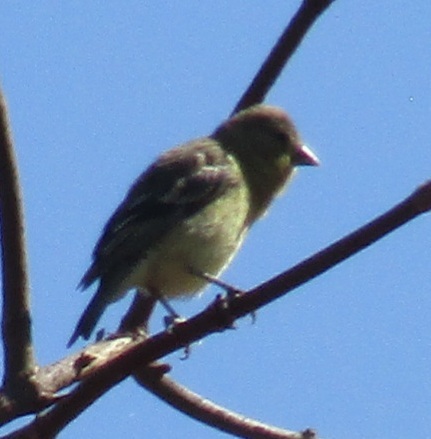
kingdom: Animalia
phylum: Chordata
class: Aves
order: Passeriformes
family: Fringillidae
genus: Spinus
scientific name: Spinus psaltria
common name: Lesser goldfinch
